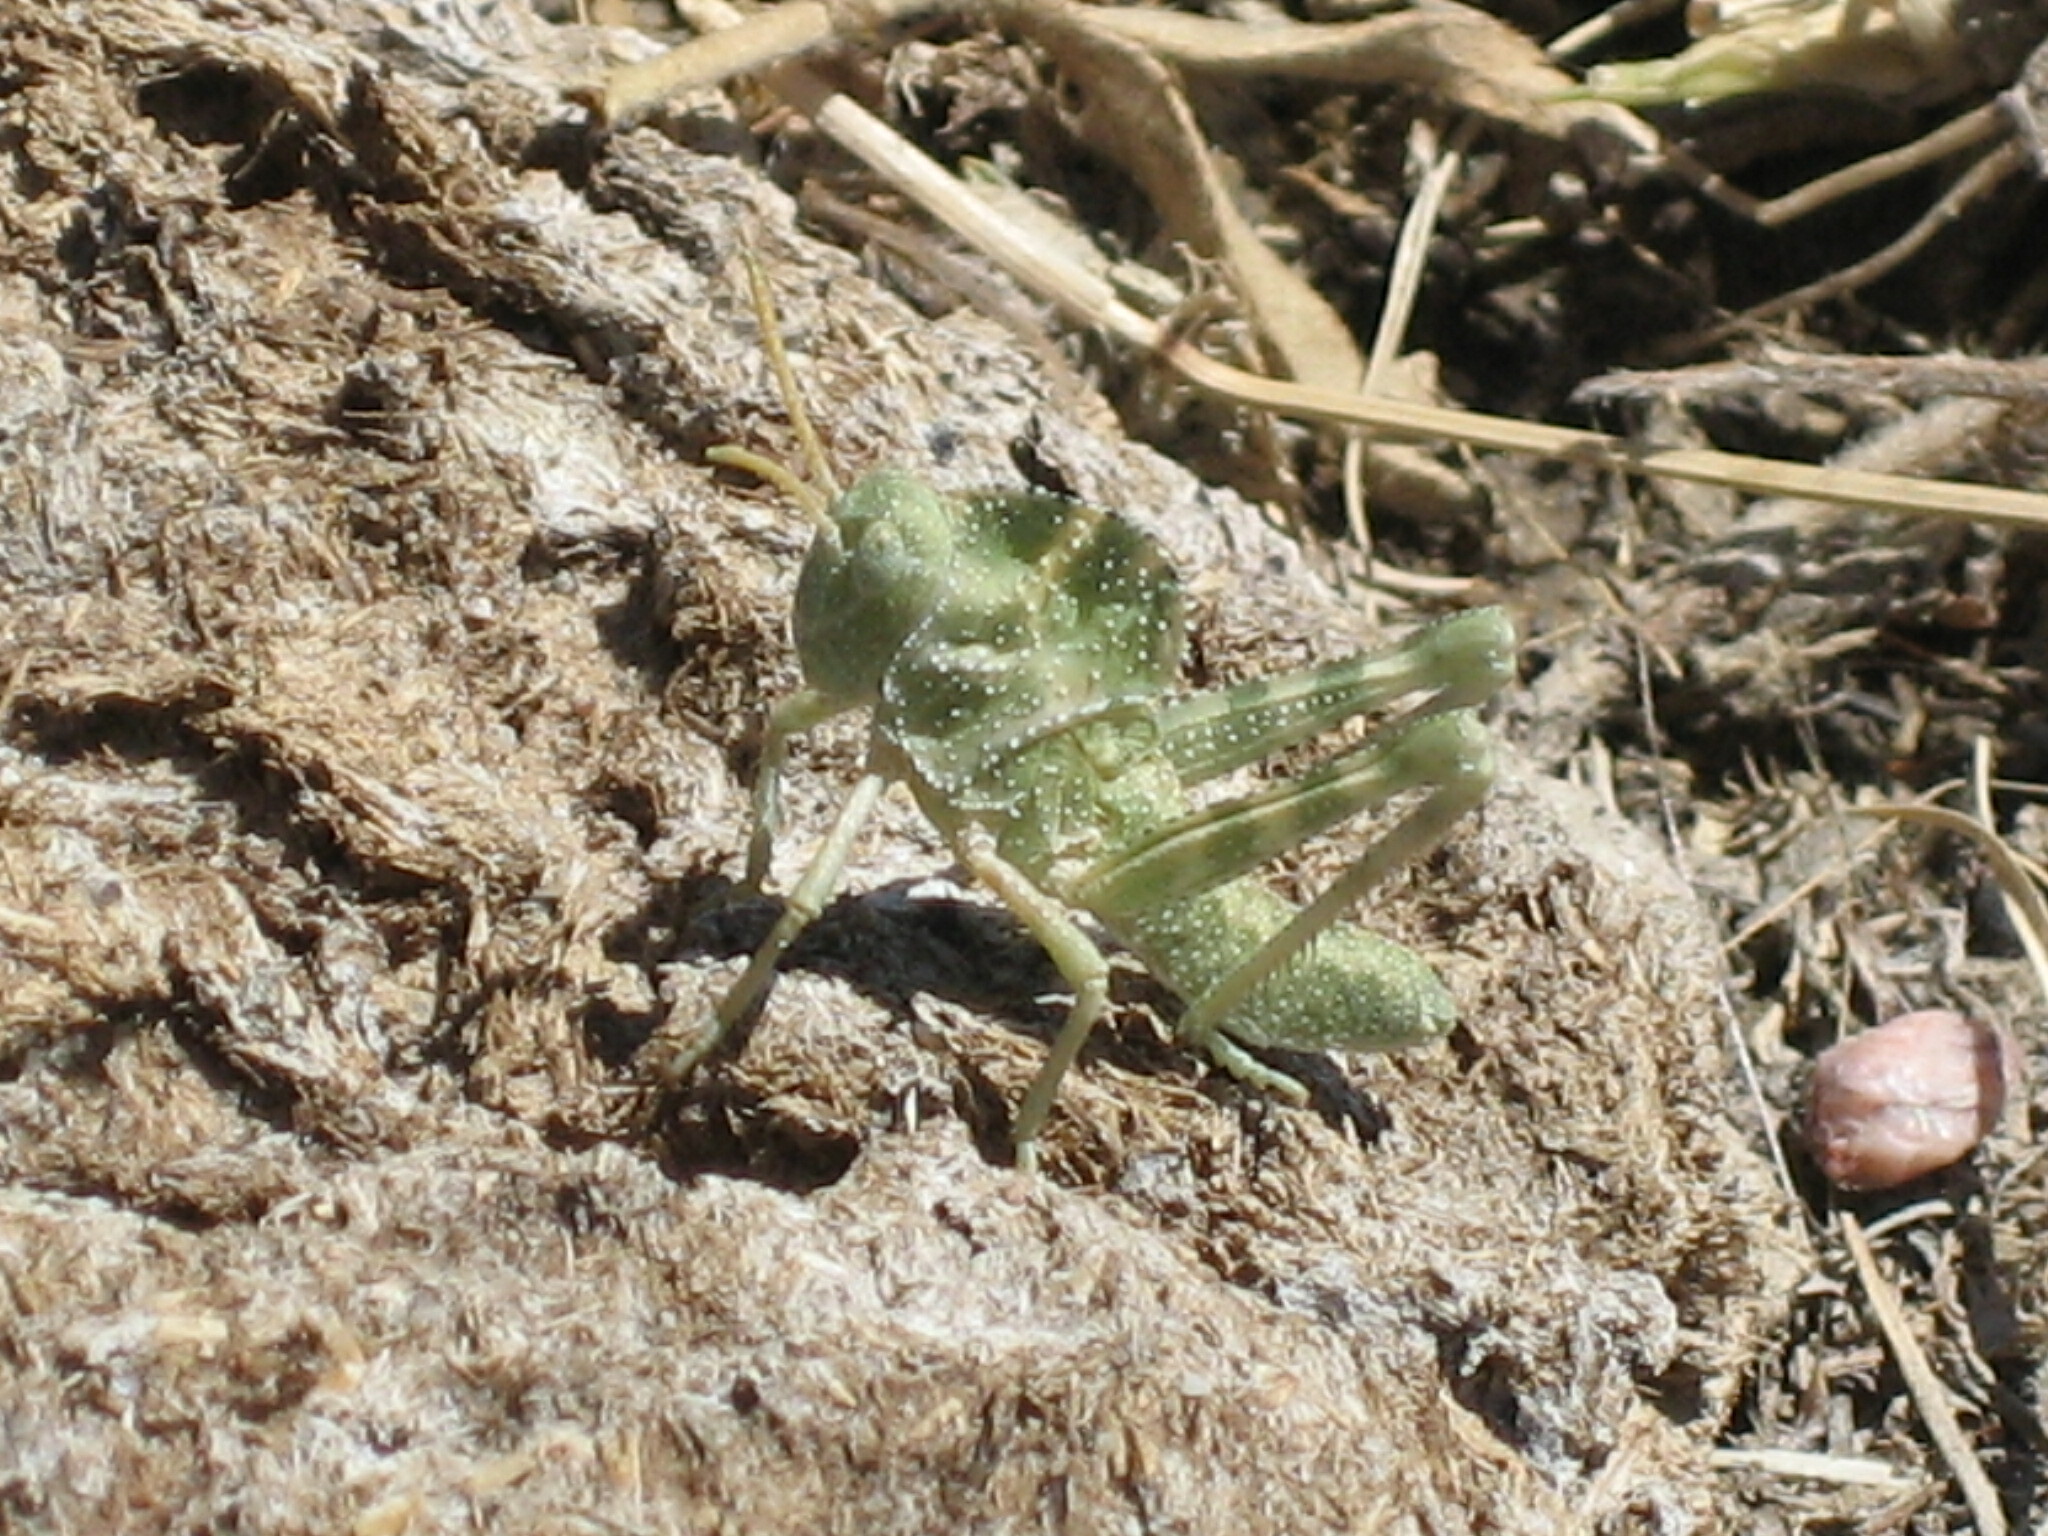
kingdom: Animalia
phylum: Arthropoda
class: Insecta
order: Orthoptera
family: Acrididae
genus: Tropidolophus
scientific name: Tropidolophus formosus
